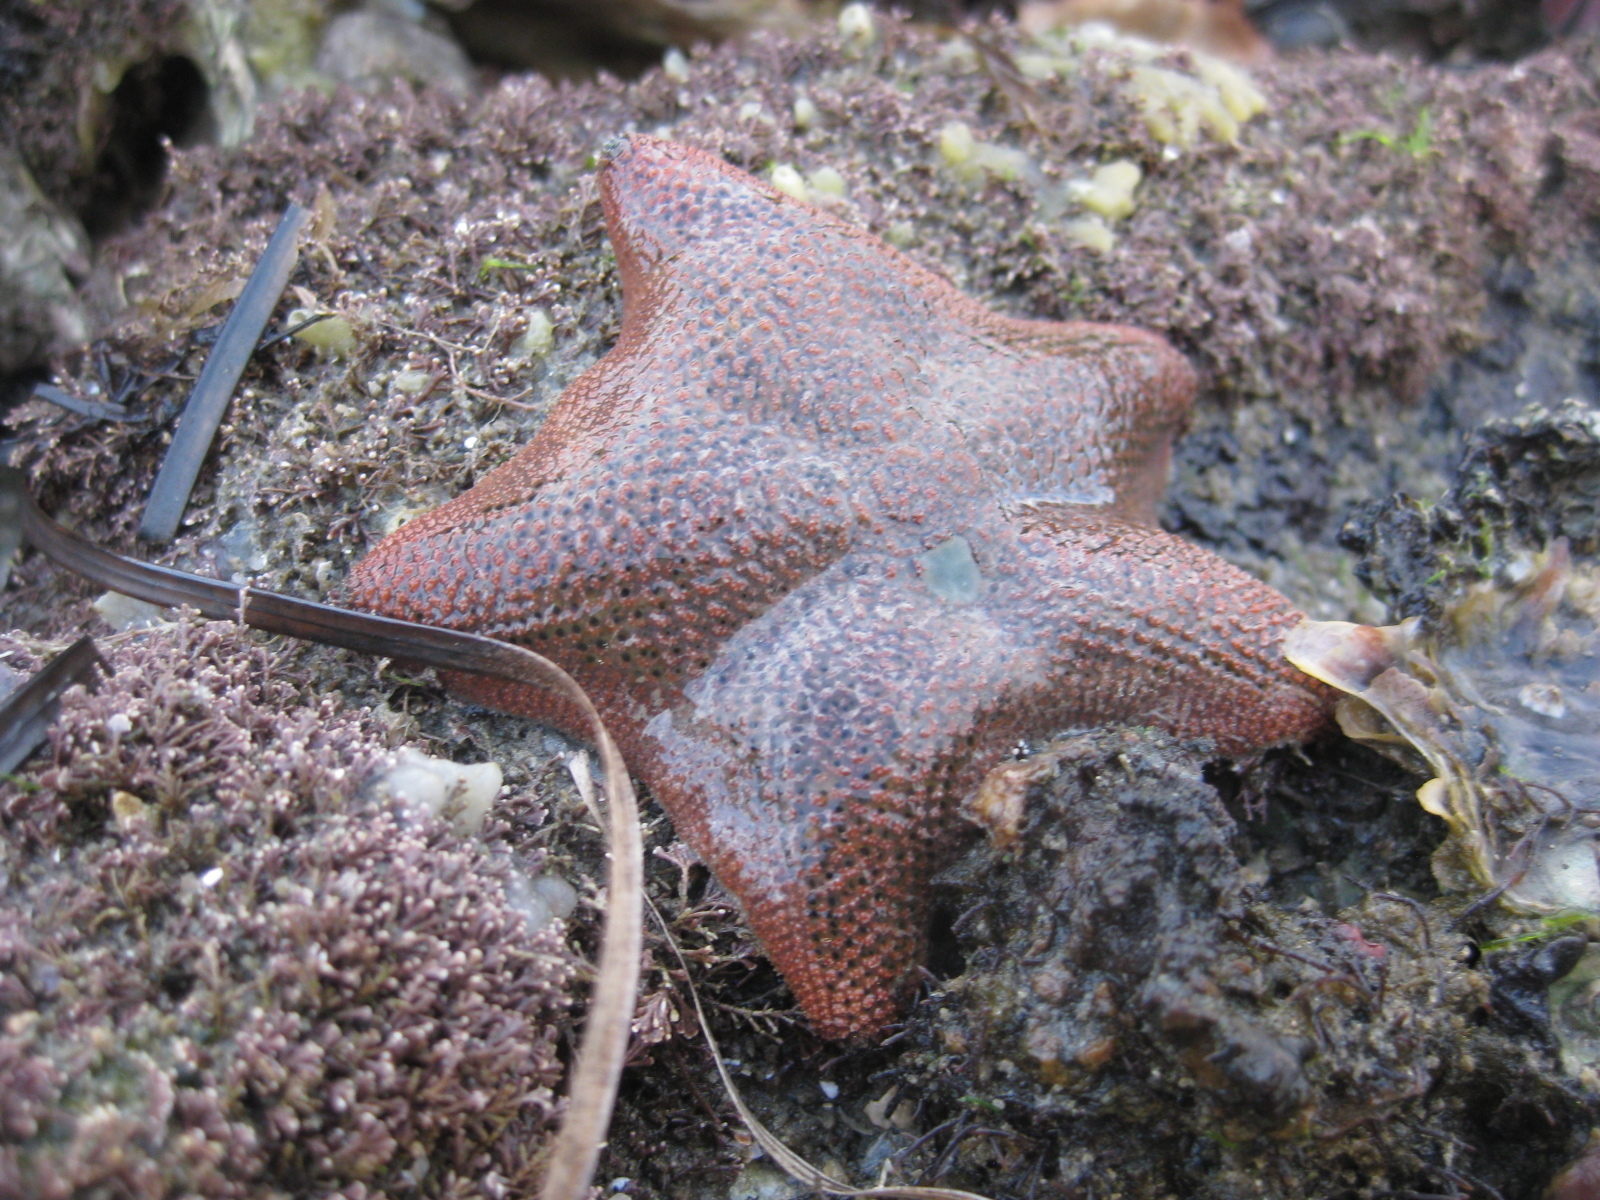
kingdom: Animalia
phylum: Echinodermata
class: Asteroidea
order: Valvatida
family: Asterinidae
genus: Patiriella
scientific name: Patiriella regularis
